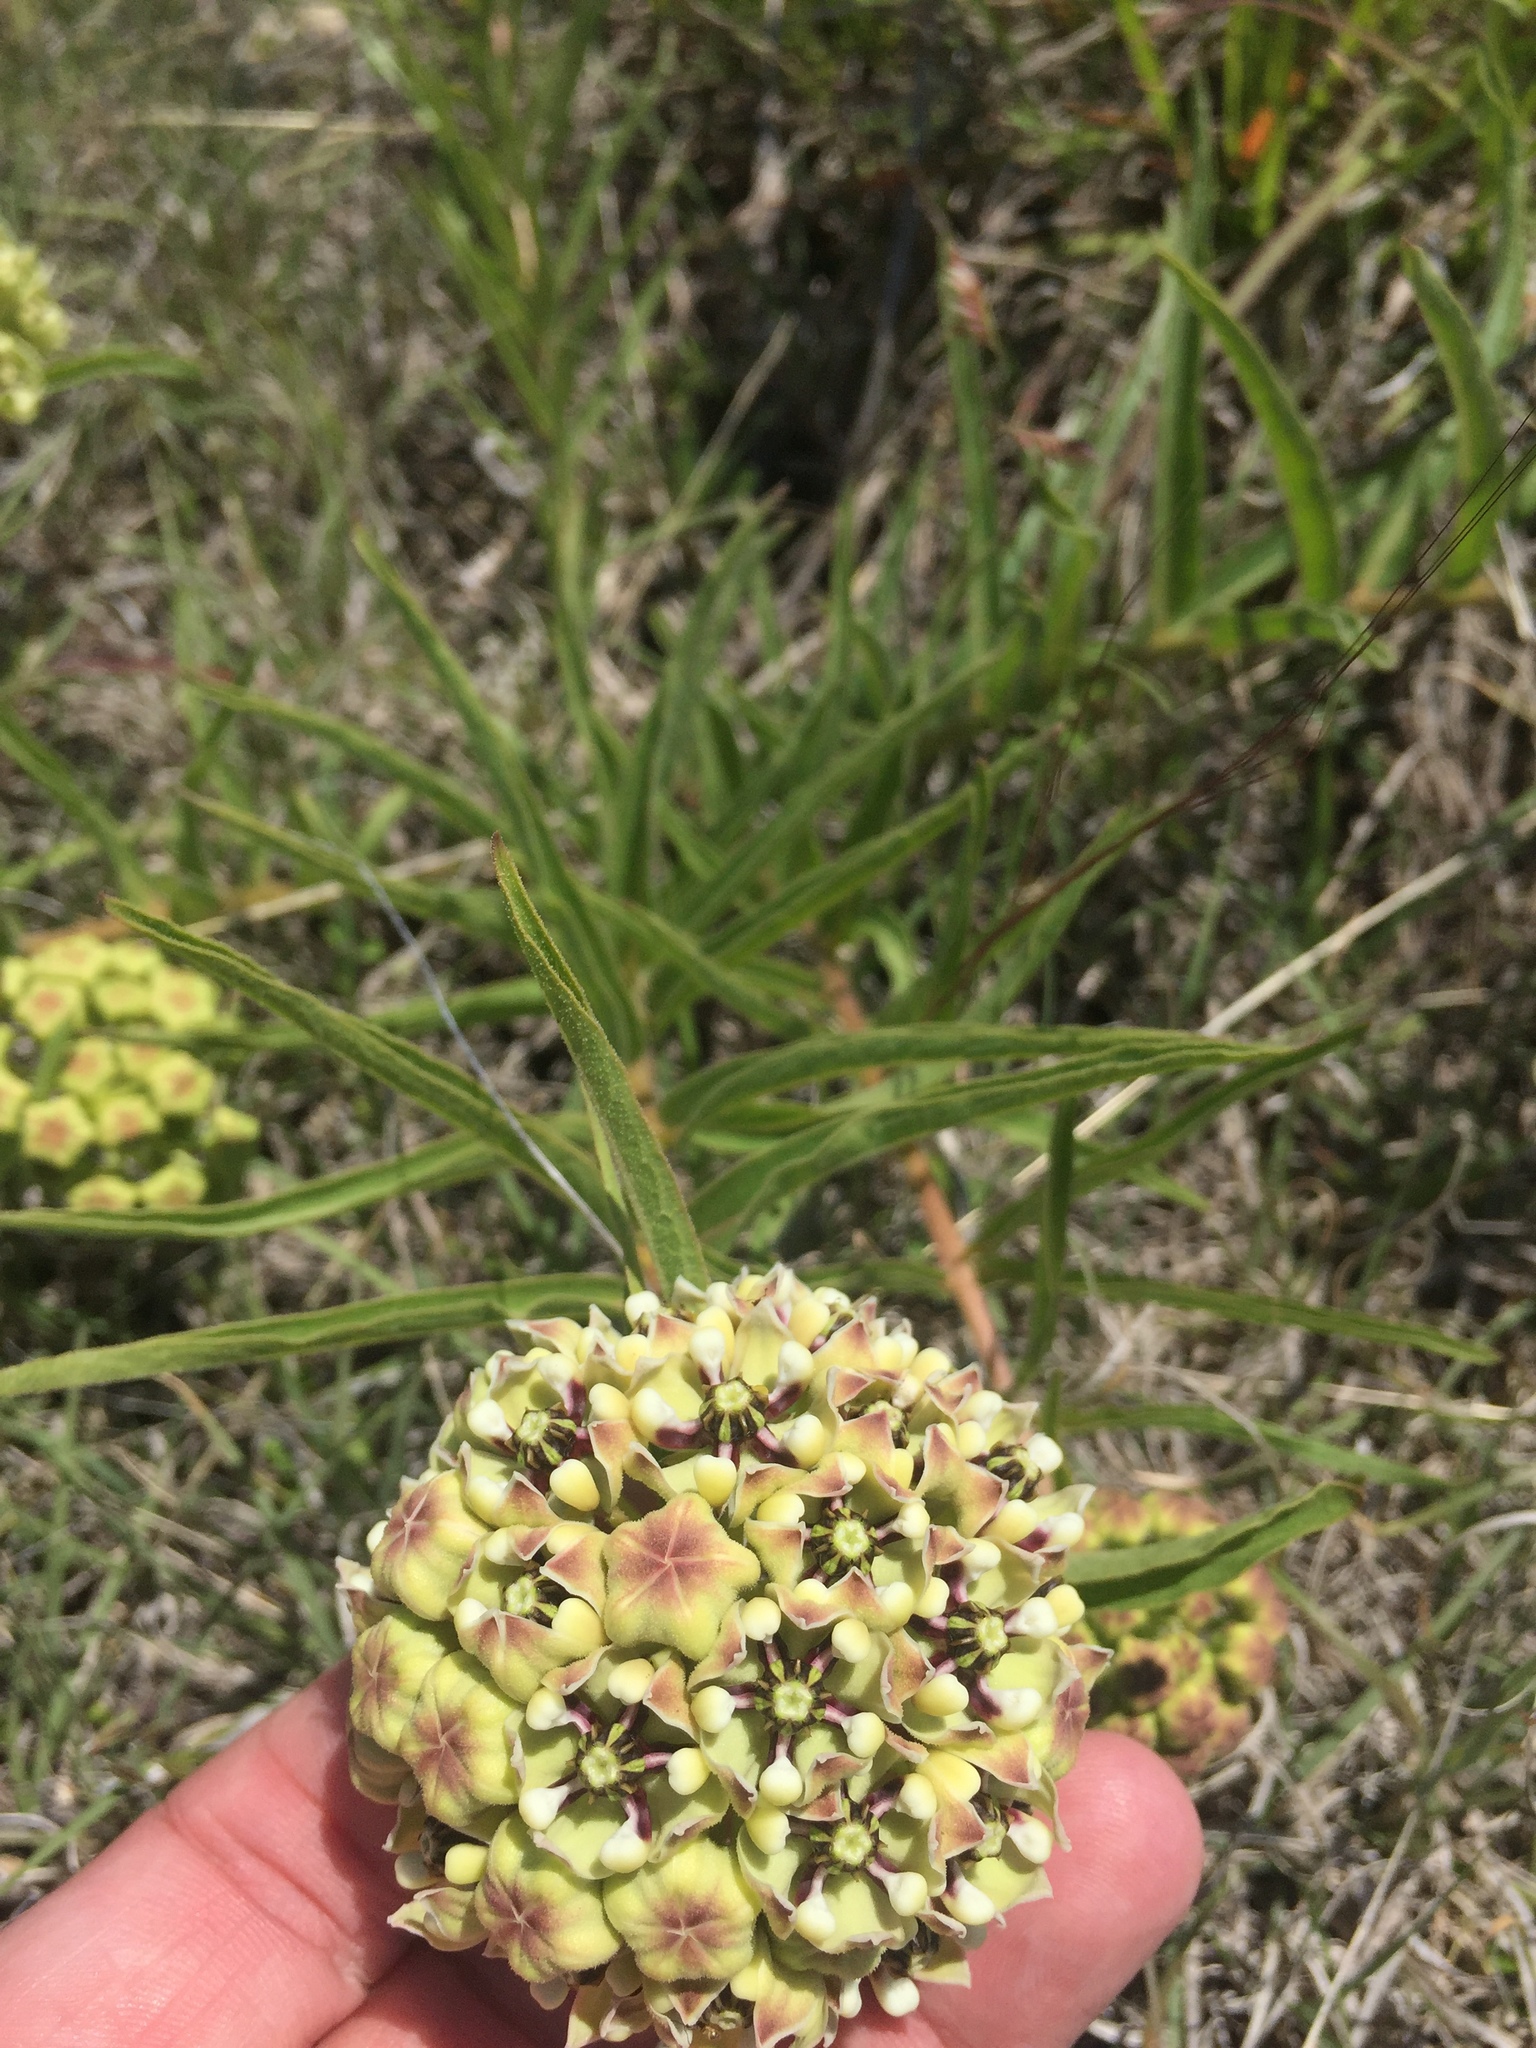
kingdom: Plantae
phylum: Tracheophyta
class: Magnoliopsida
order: Gentianales
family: Apocynaceae
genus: Asclepias
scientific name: Asclepias asperula
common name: Antelope horns
